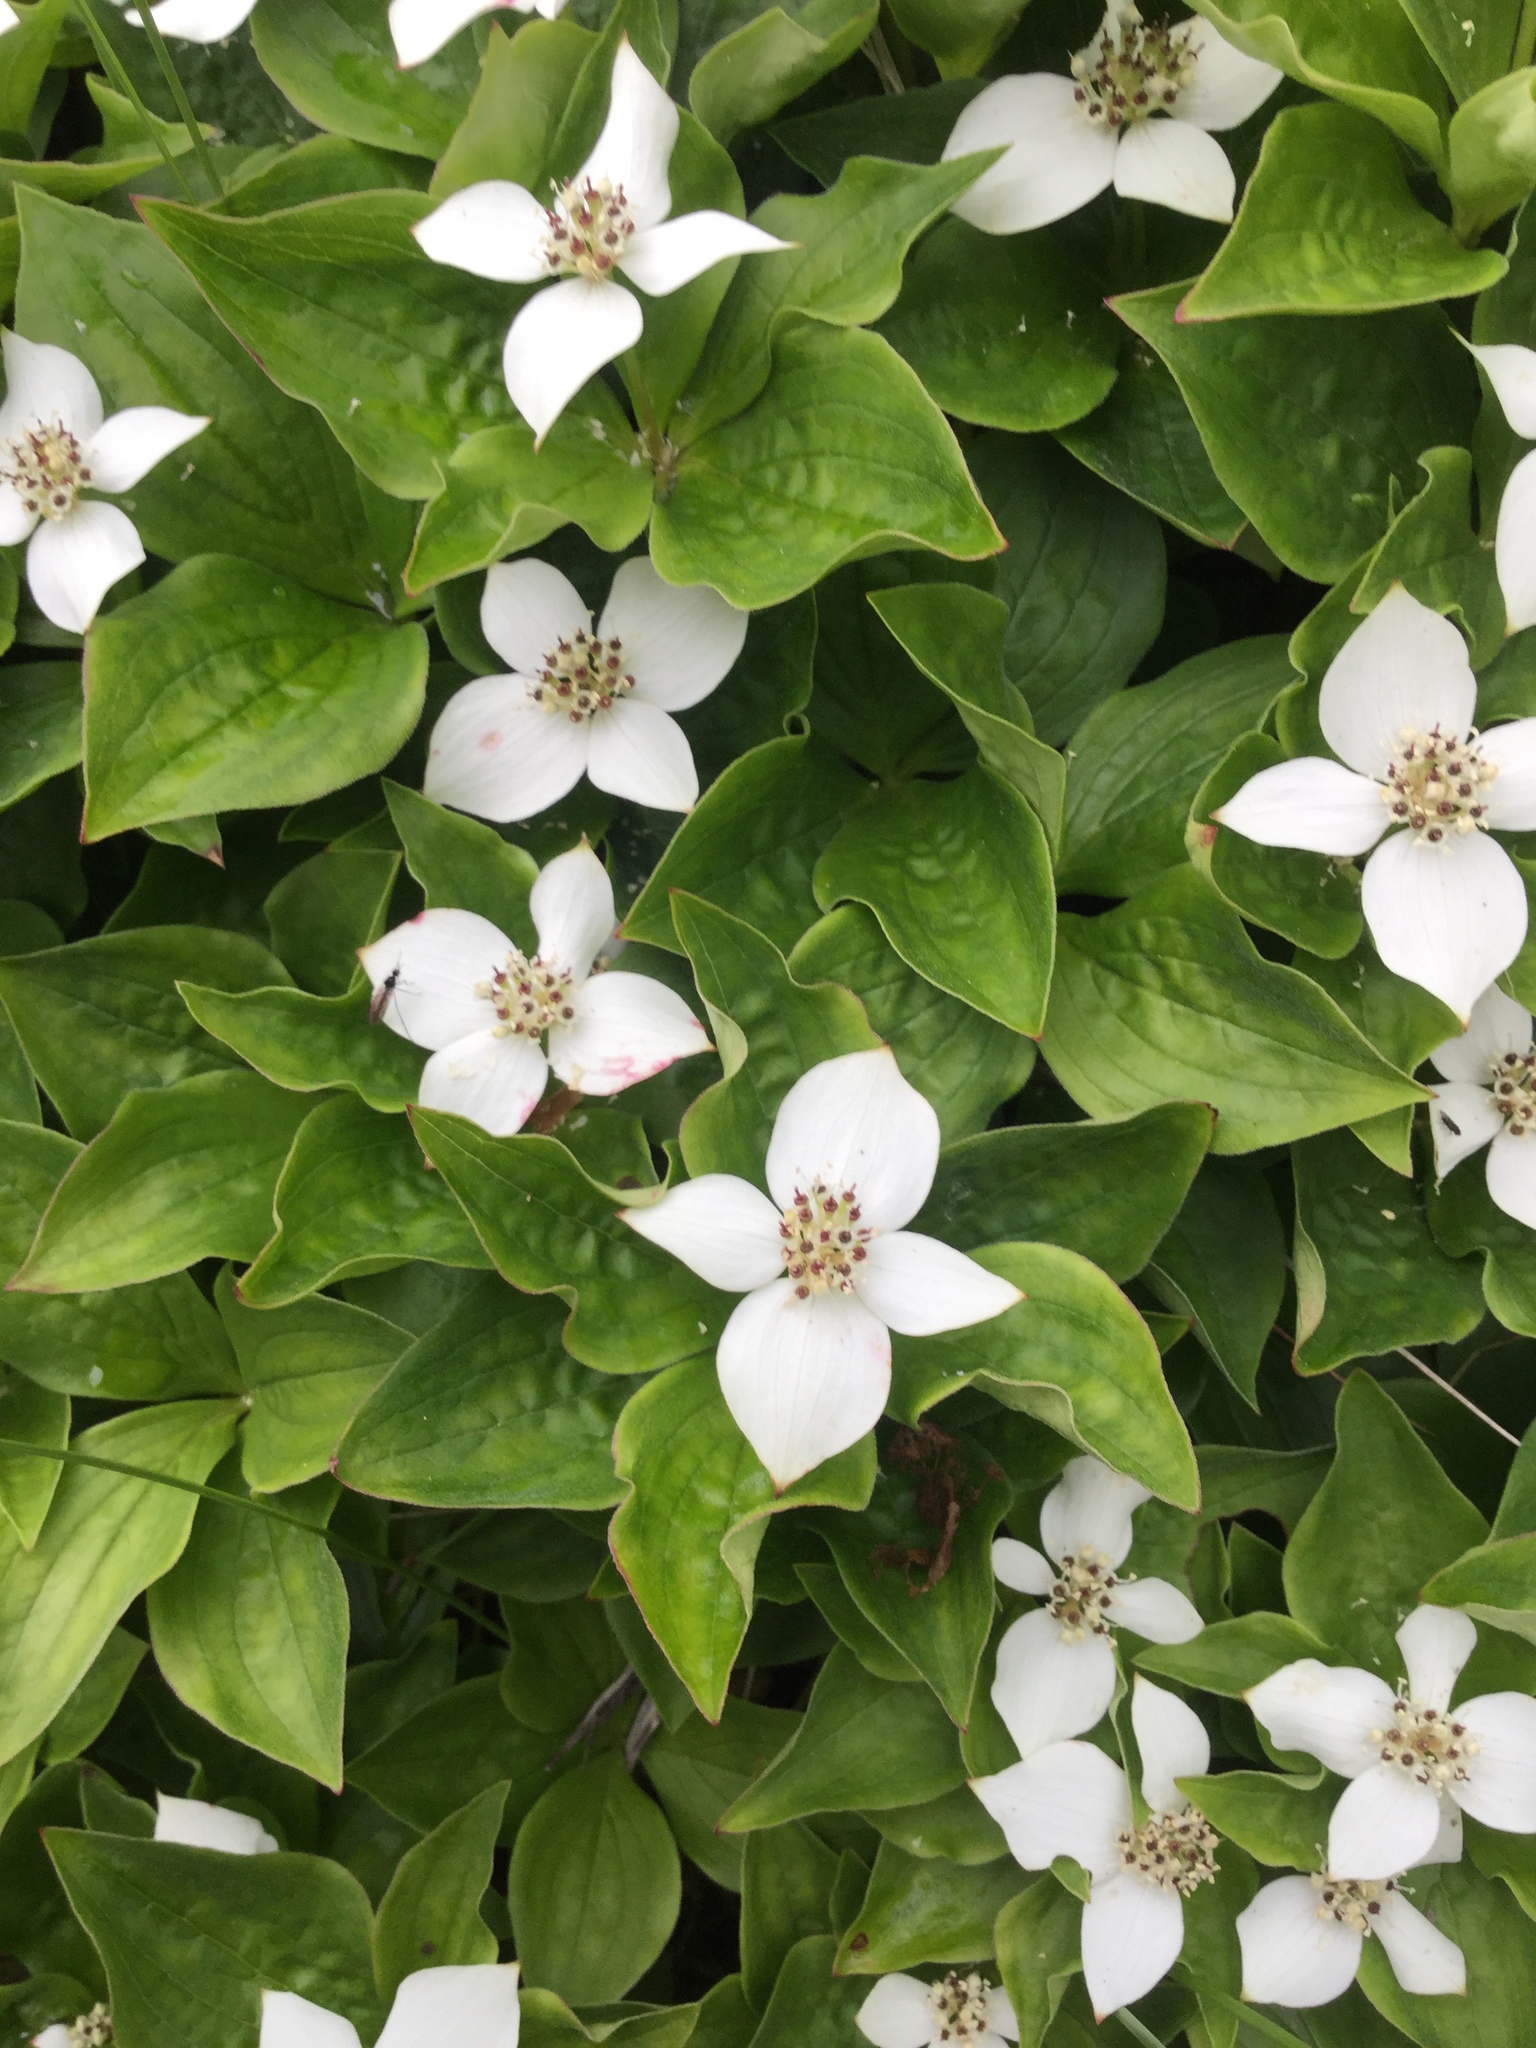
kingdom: Plantae
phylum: Tracheophyta
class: Magnoliopsida
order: Cornales
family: Cornaceae
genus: Cornus
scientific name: Cornus canadensis
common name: Creeping dogwood
